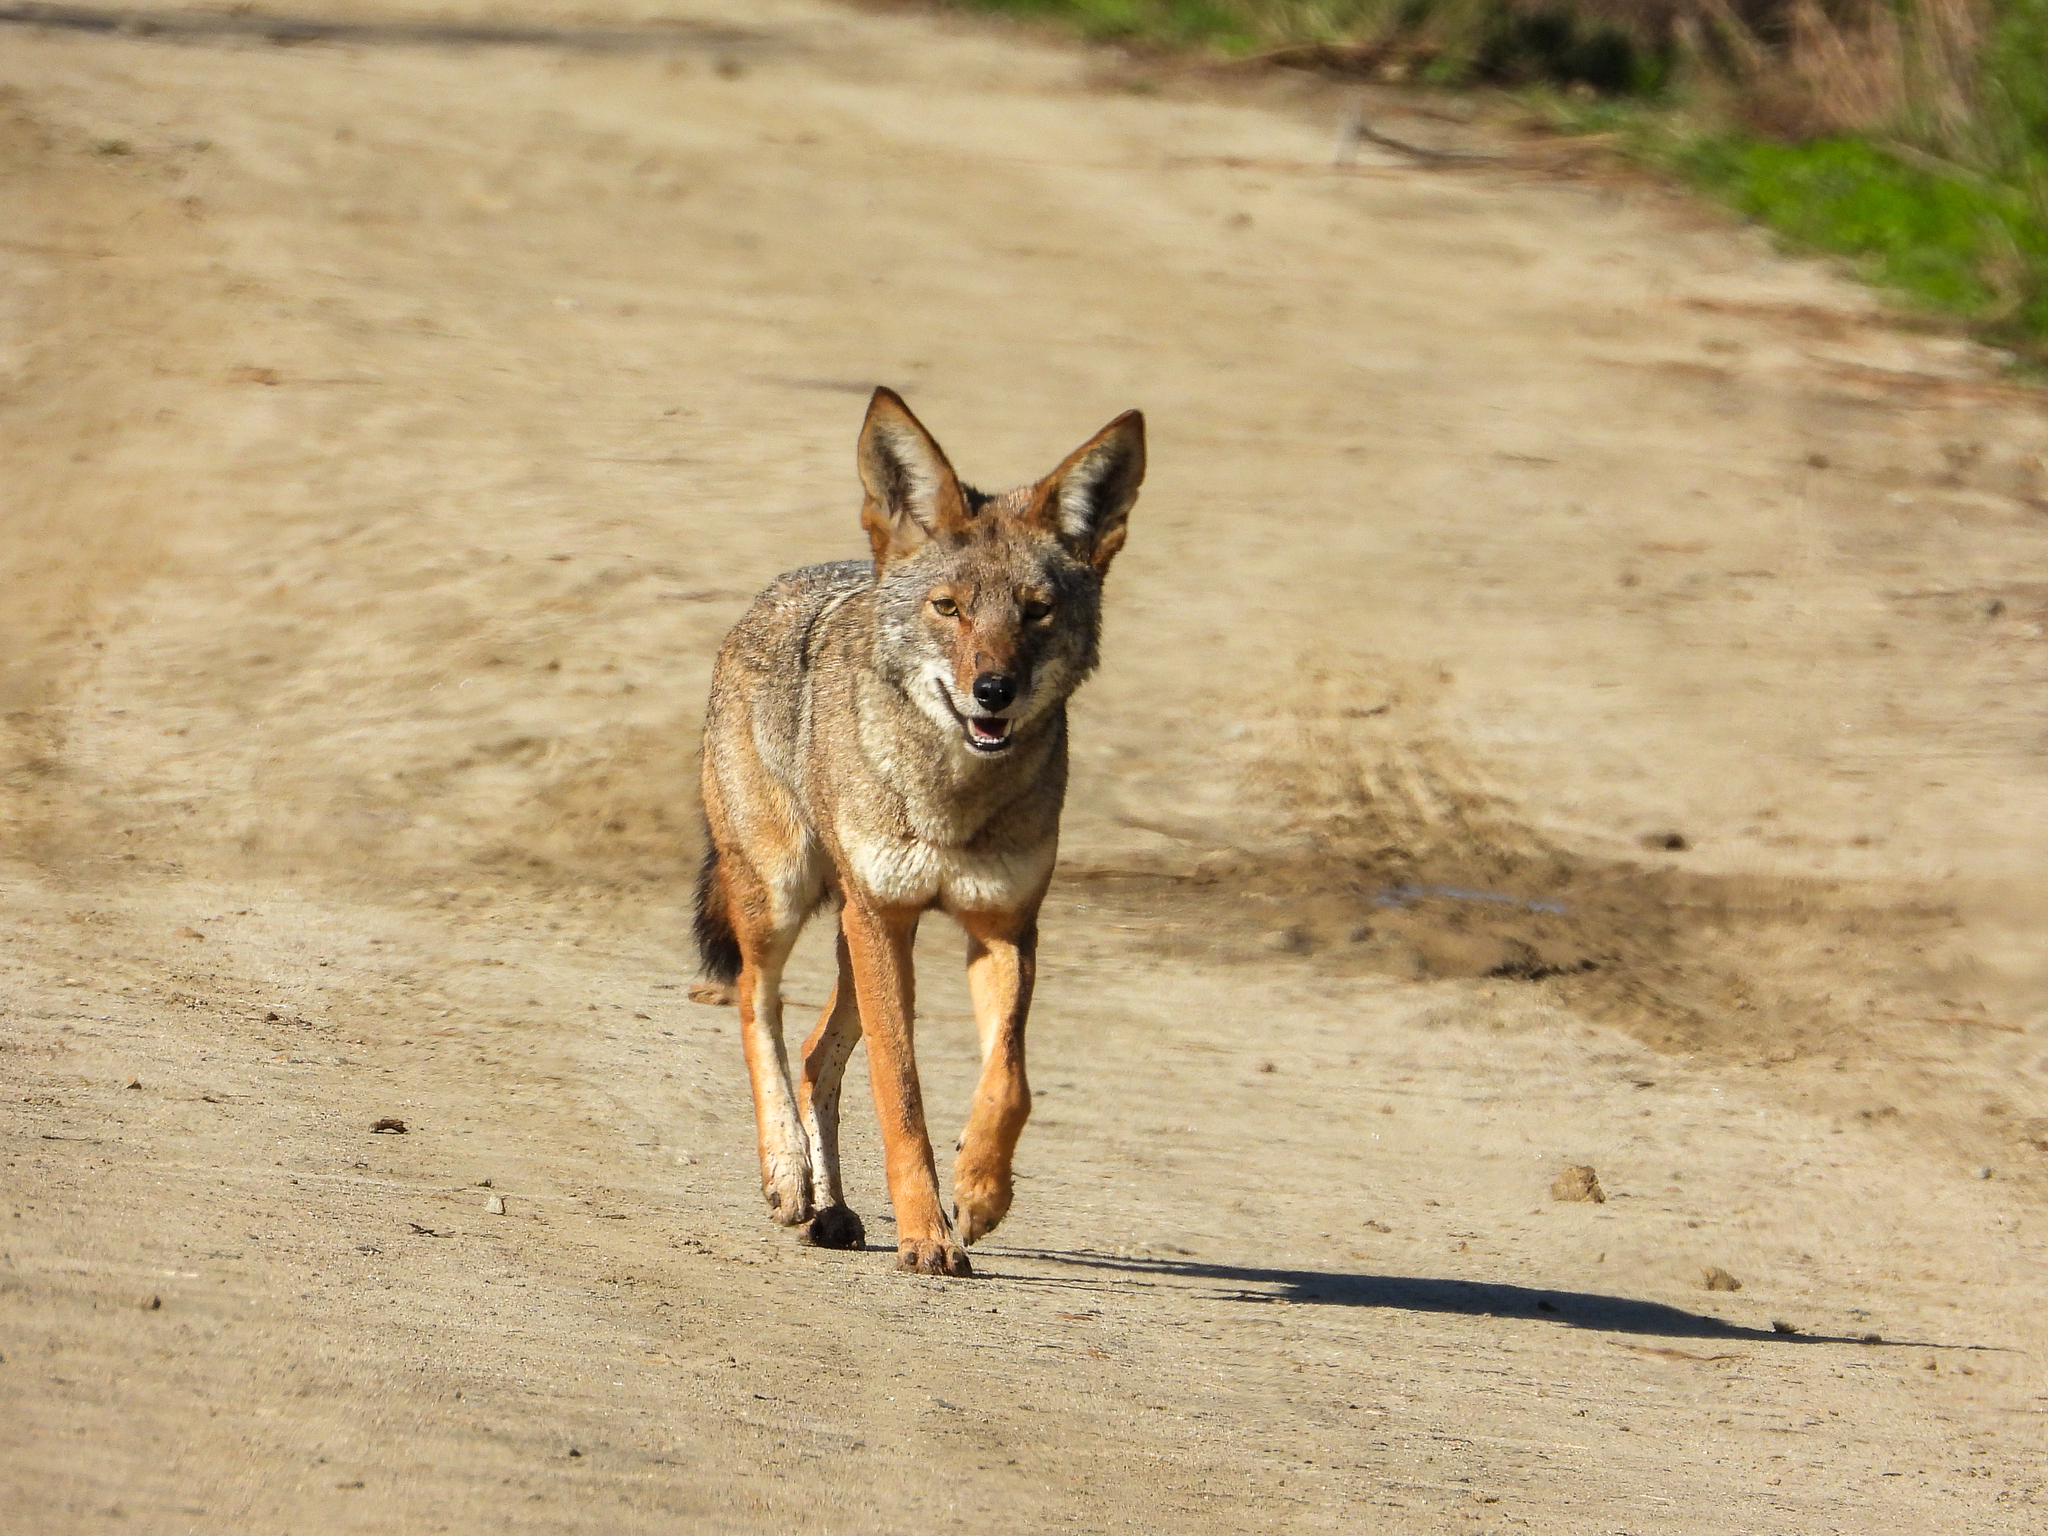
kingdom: Animalia
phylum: Chordata
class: Mammalia
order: Carnivora
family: Canidae
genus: Canis
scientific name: Canis latrans
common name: Coyote
